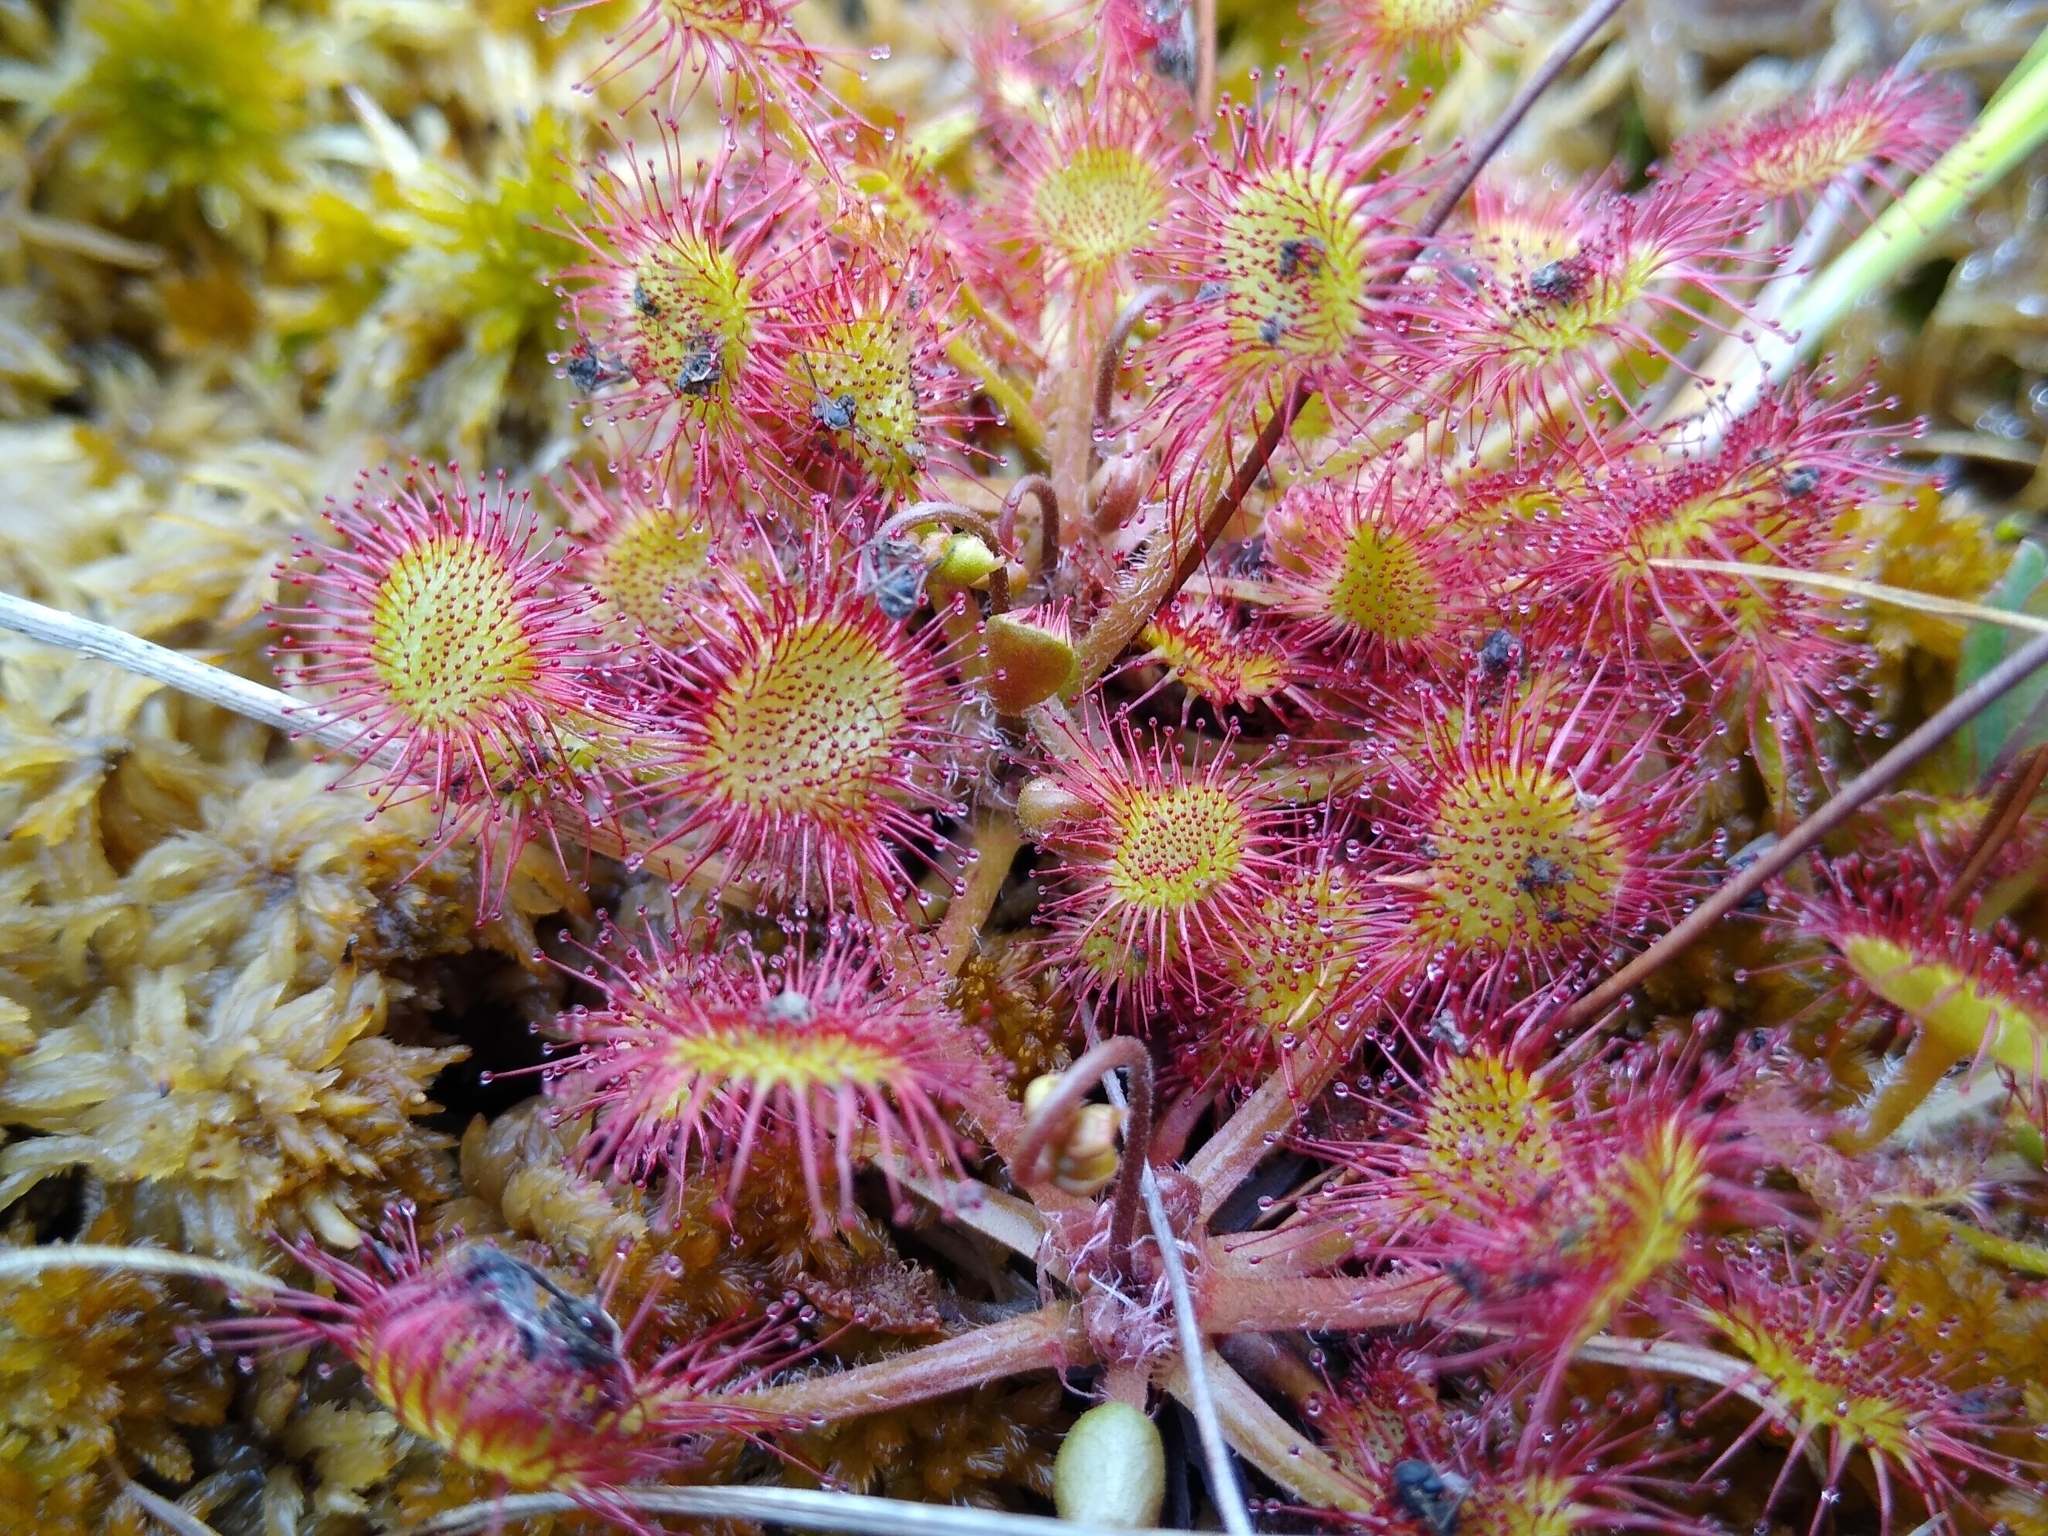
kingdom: Plantae
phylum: Tracheophyta
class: Magnoliopsida
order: Caryophyllales
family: Droseraceae
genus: Drosera
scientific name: Drosera rotundifolia
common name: Round-leaved sundew
